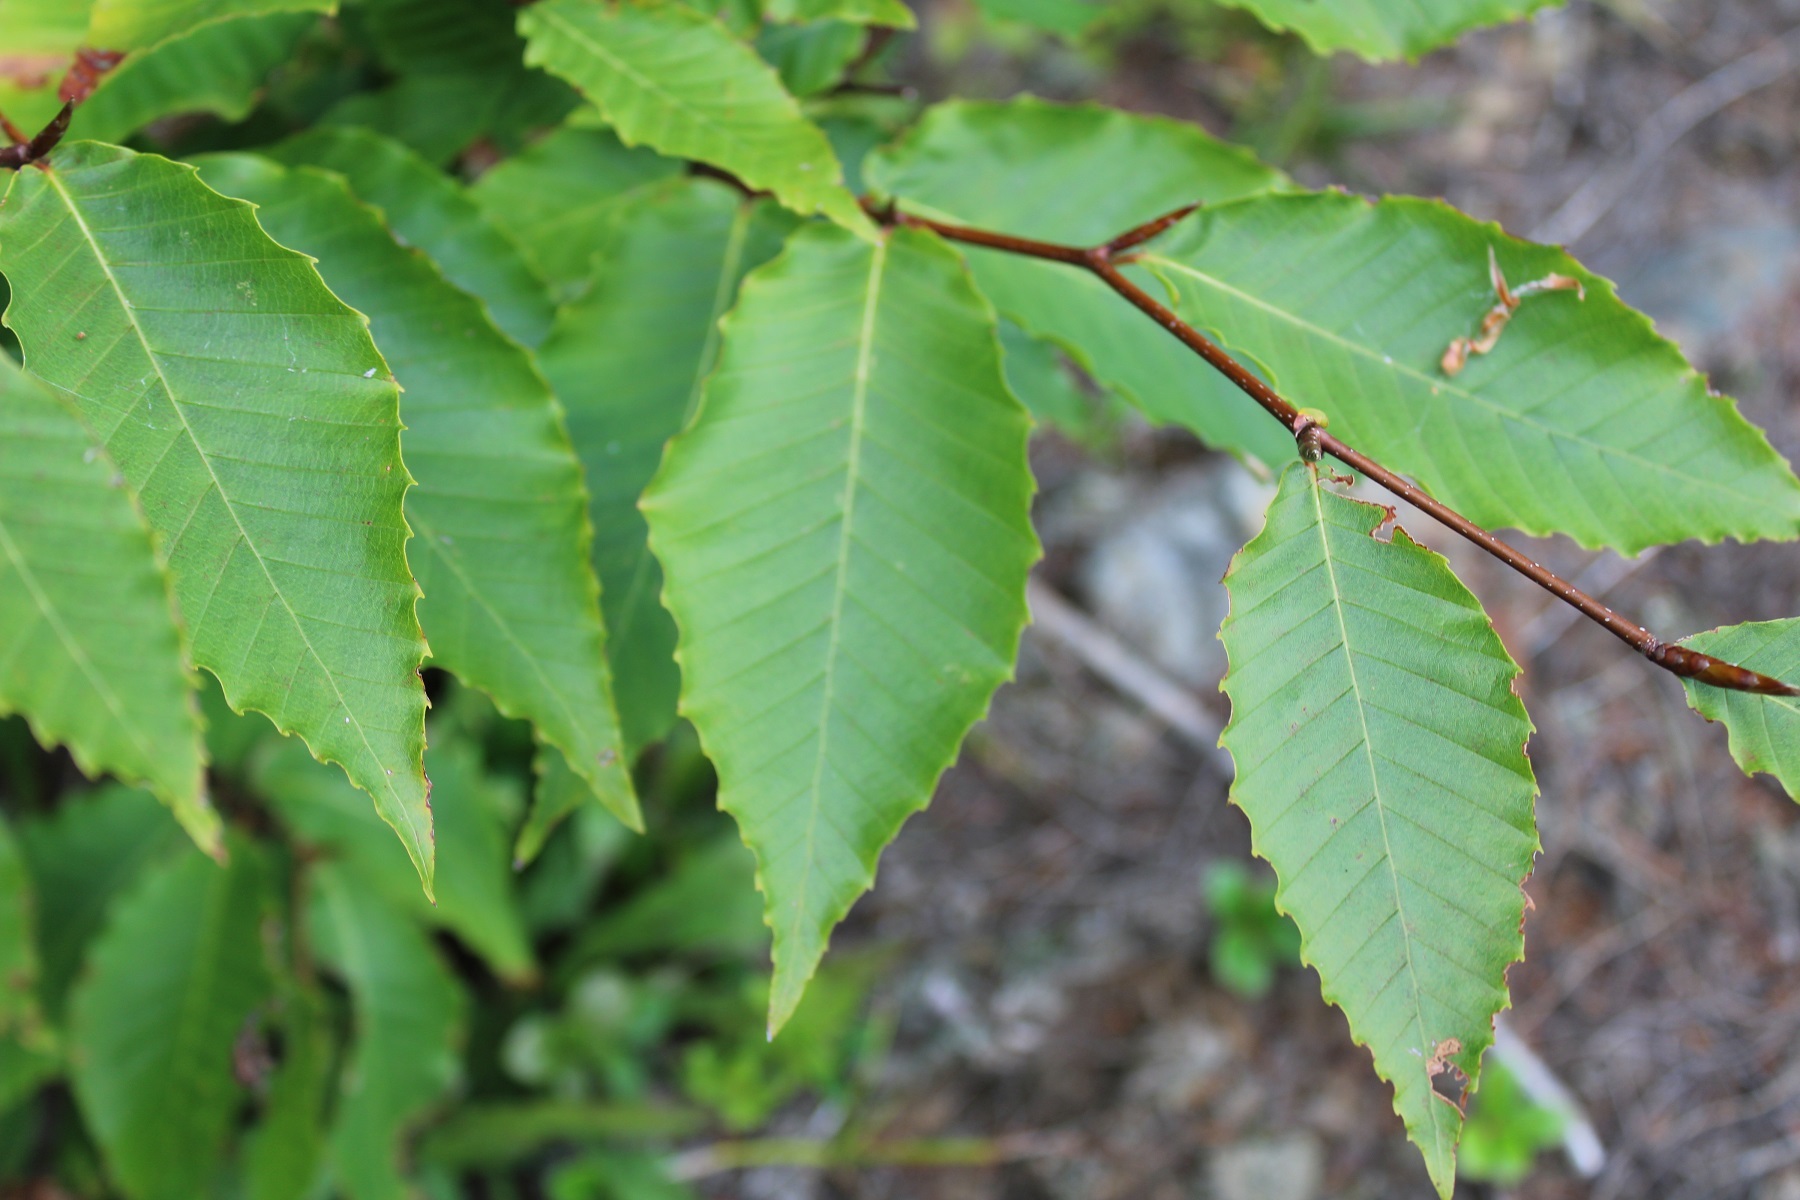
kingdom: Plantae
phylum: Tracheophyta
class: Magnoliopsida
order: Fagales
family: Fagaceae
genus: Fagus
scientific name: Fagus grandifolia
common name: American beech
